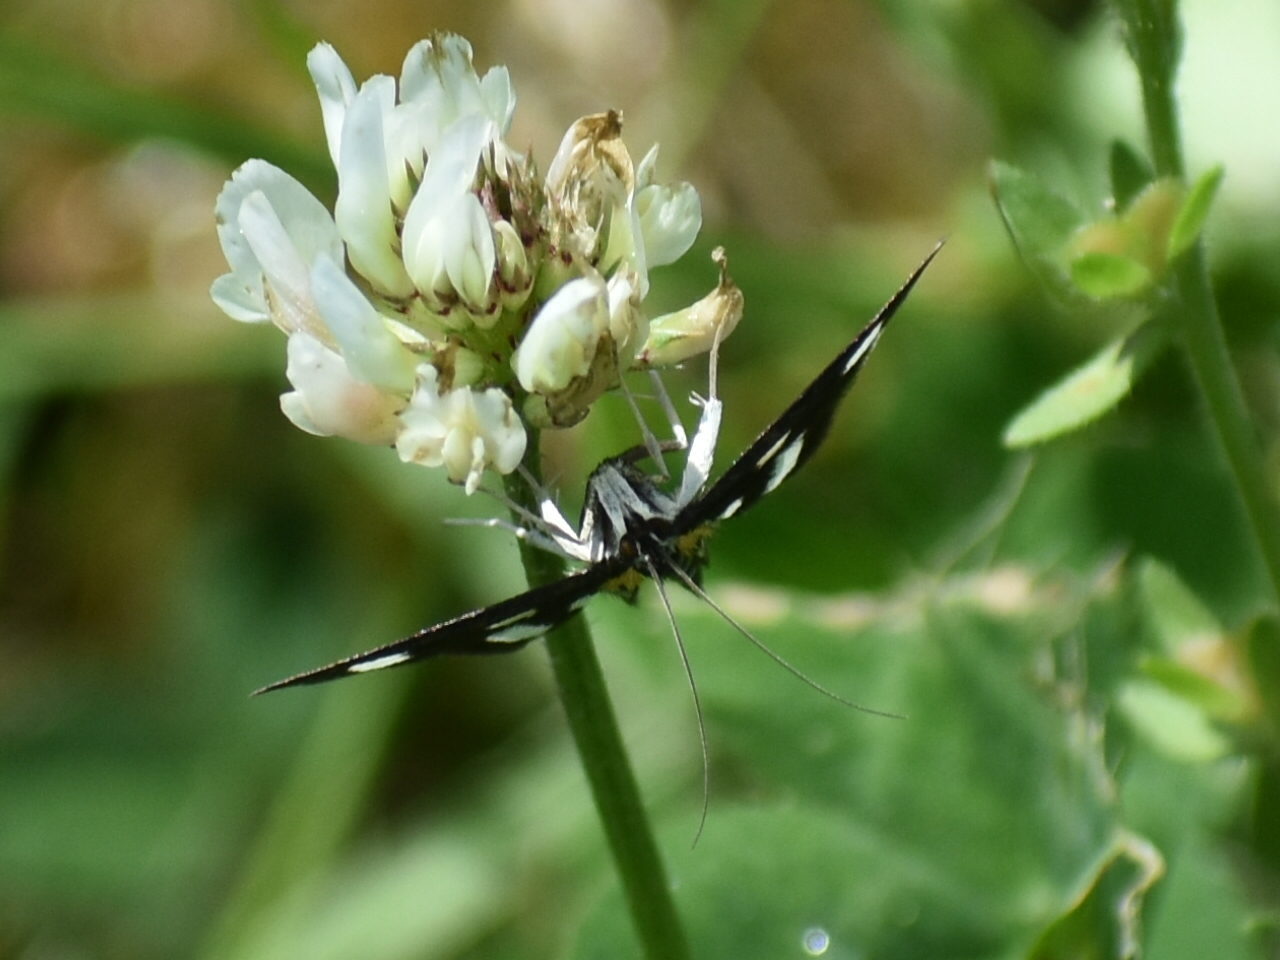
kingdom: Animalia
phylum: Arthropoda
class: Insecta
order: Lepidoptera
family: Crambidae
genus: Anania
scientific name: Anania funebris
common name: White-spotted sable moth
